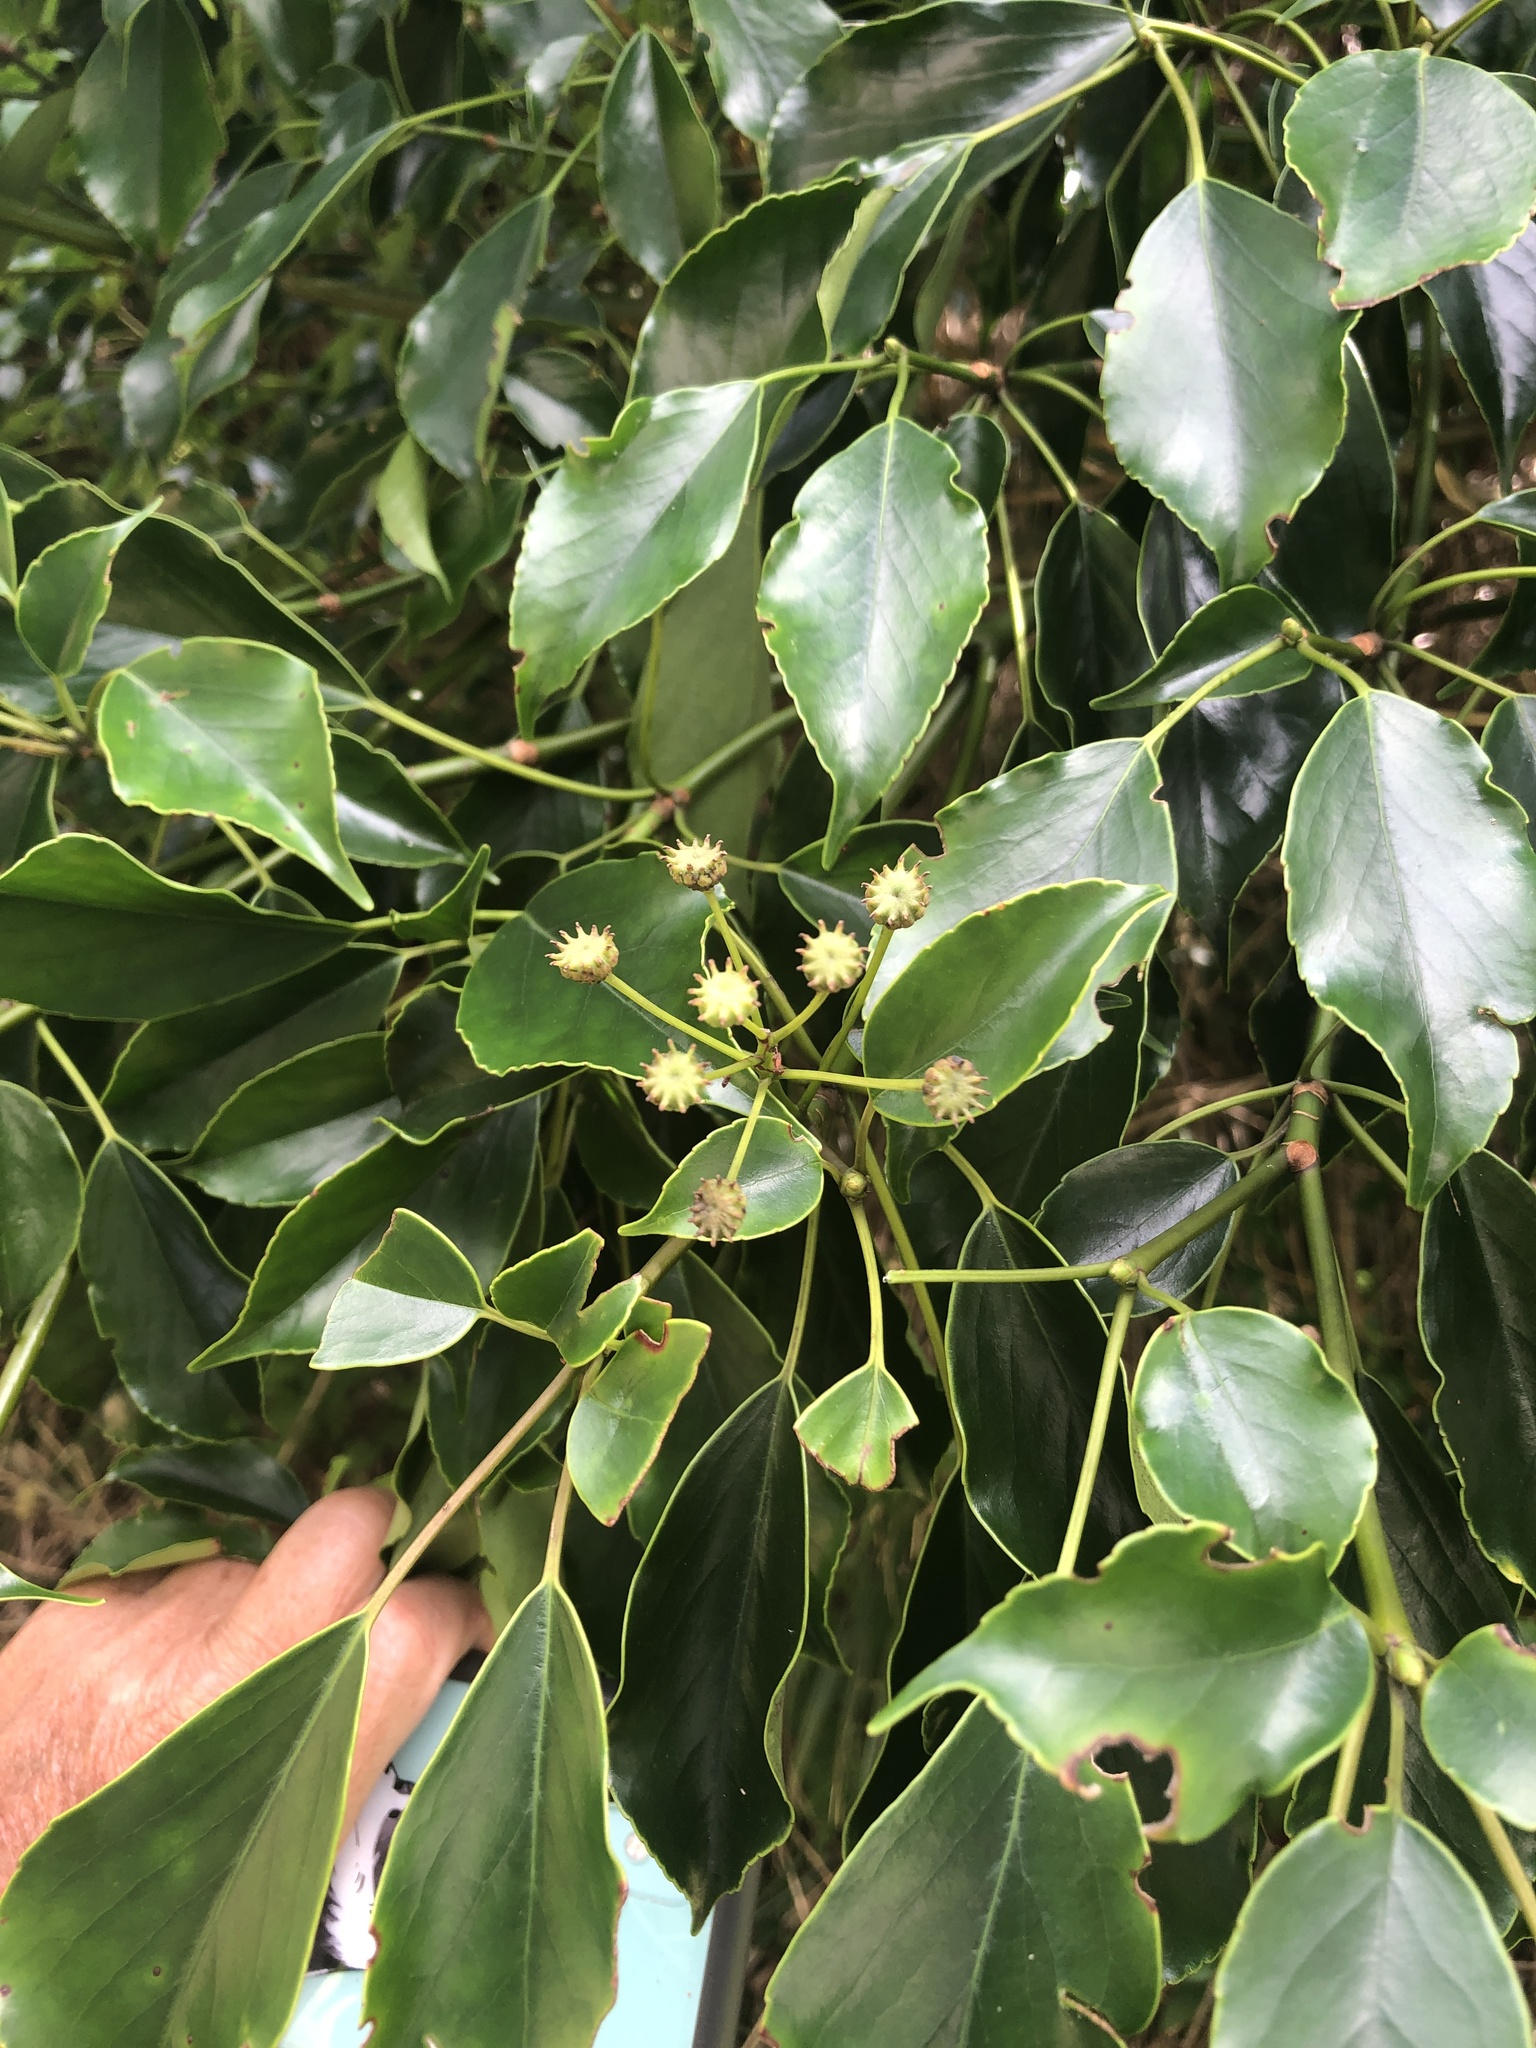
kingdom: Plantae
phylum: Tracheophyta
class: Magnoliopsida
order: Trochodendrales
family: Trochodendraceae
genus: Trochodendron
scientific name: Trochodendron aralioides
